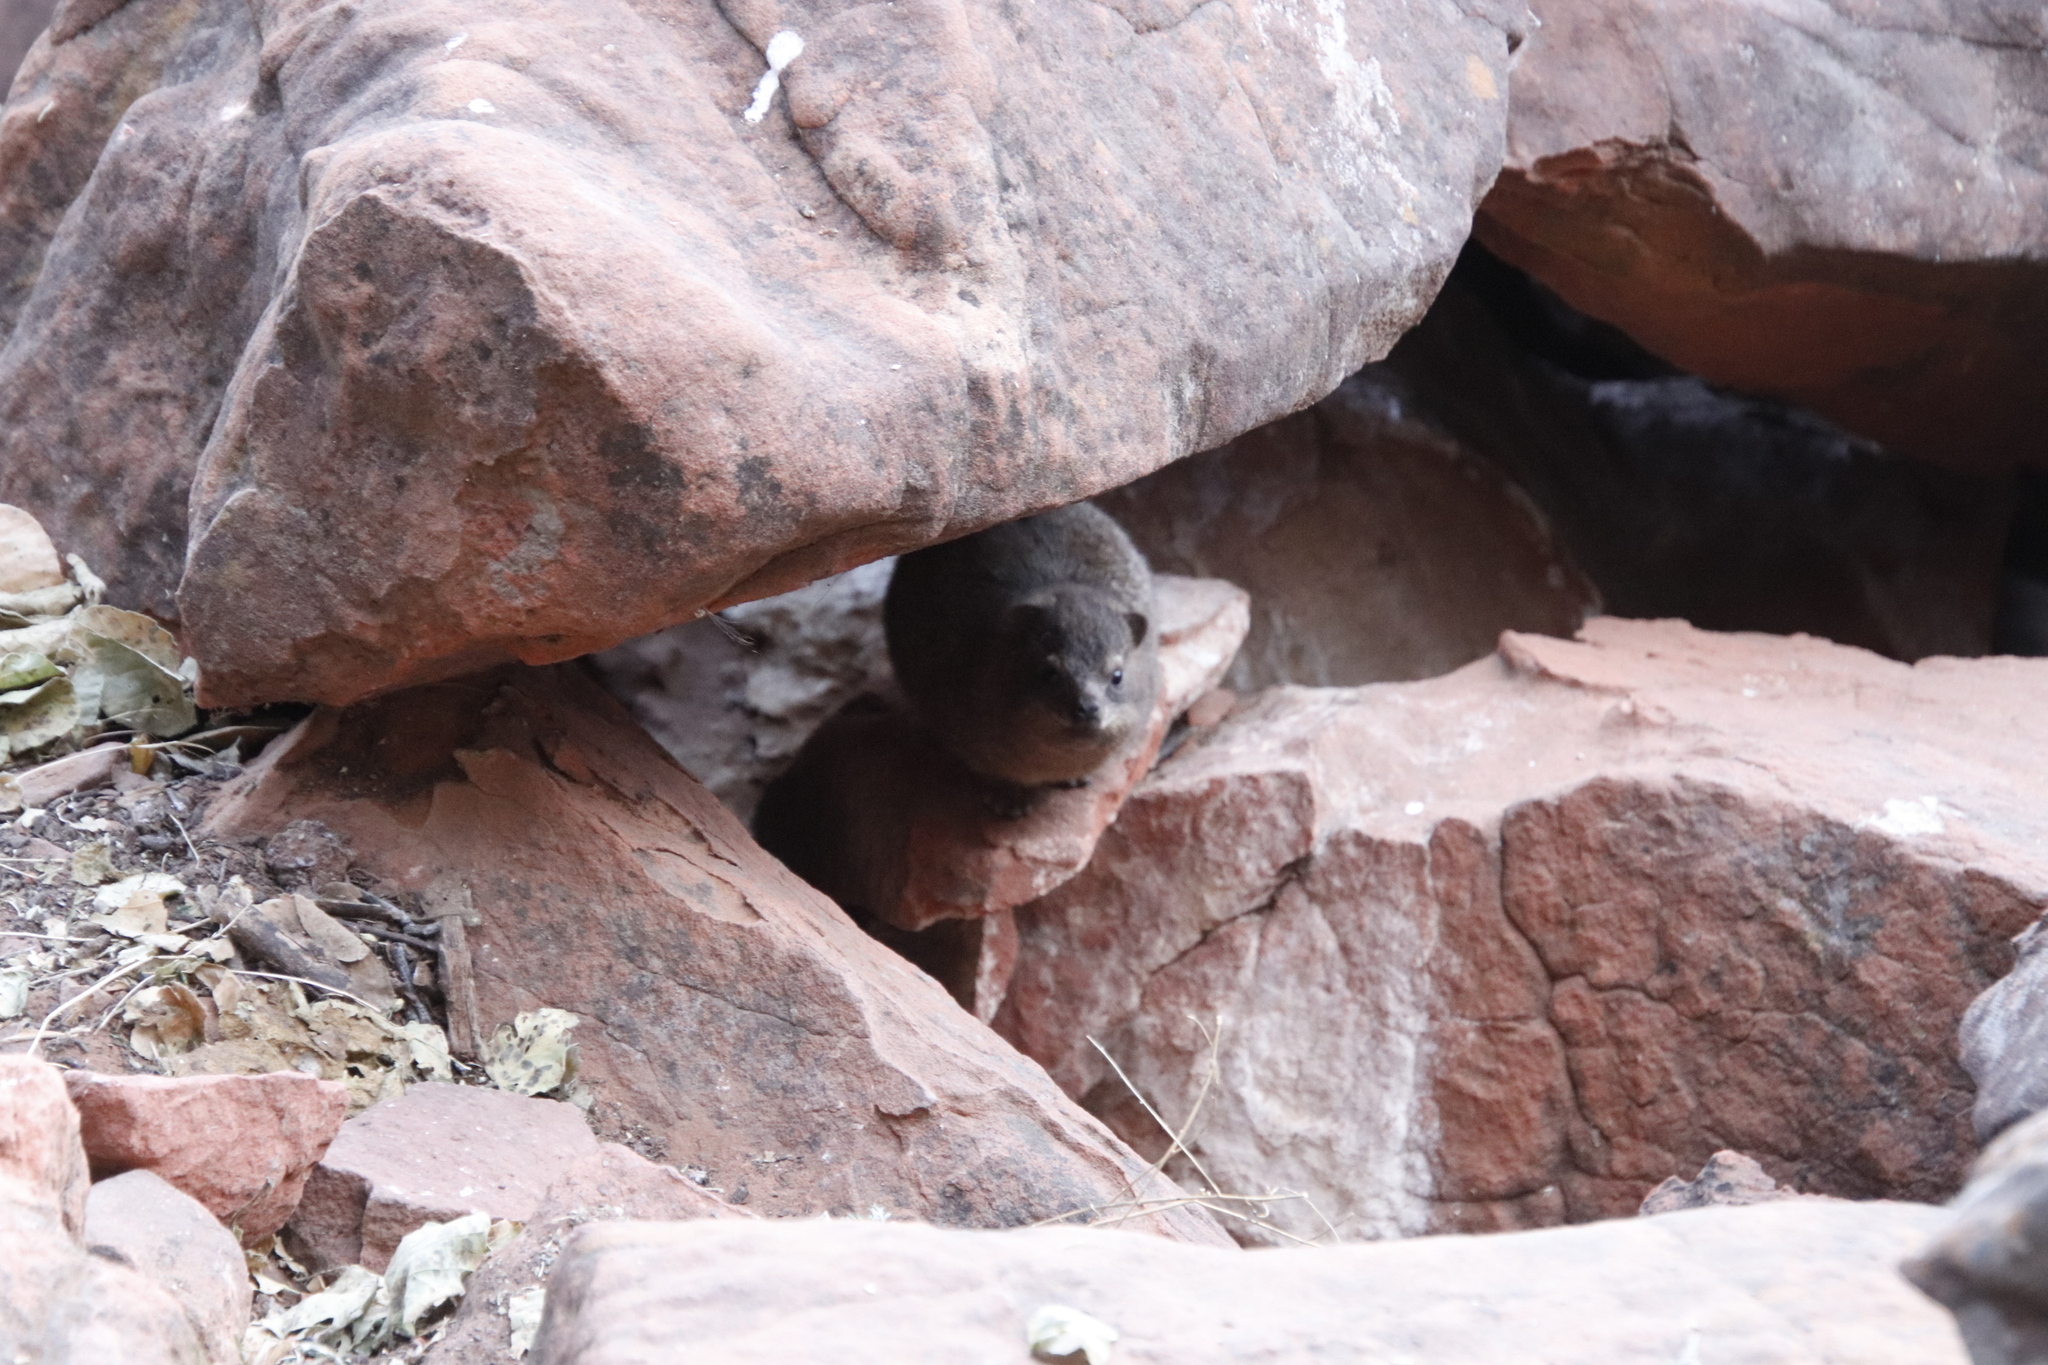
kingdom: Animalia
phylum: Chordata
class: Mammalia
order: Hyracoidea
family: Procaviidae
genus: Procavia
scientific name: Procavia capensis
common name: Rock hyrax
